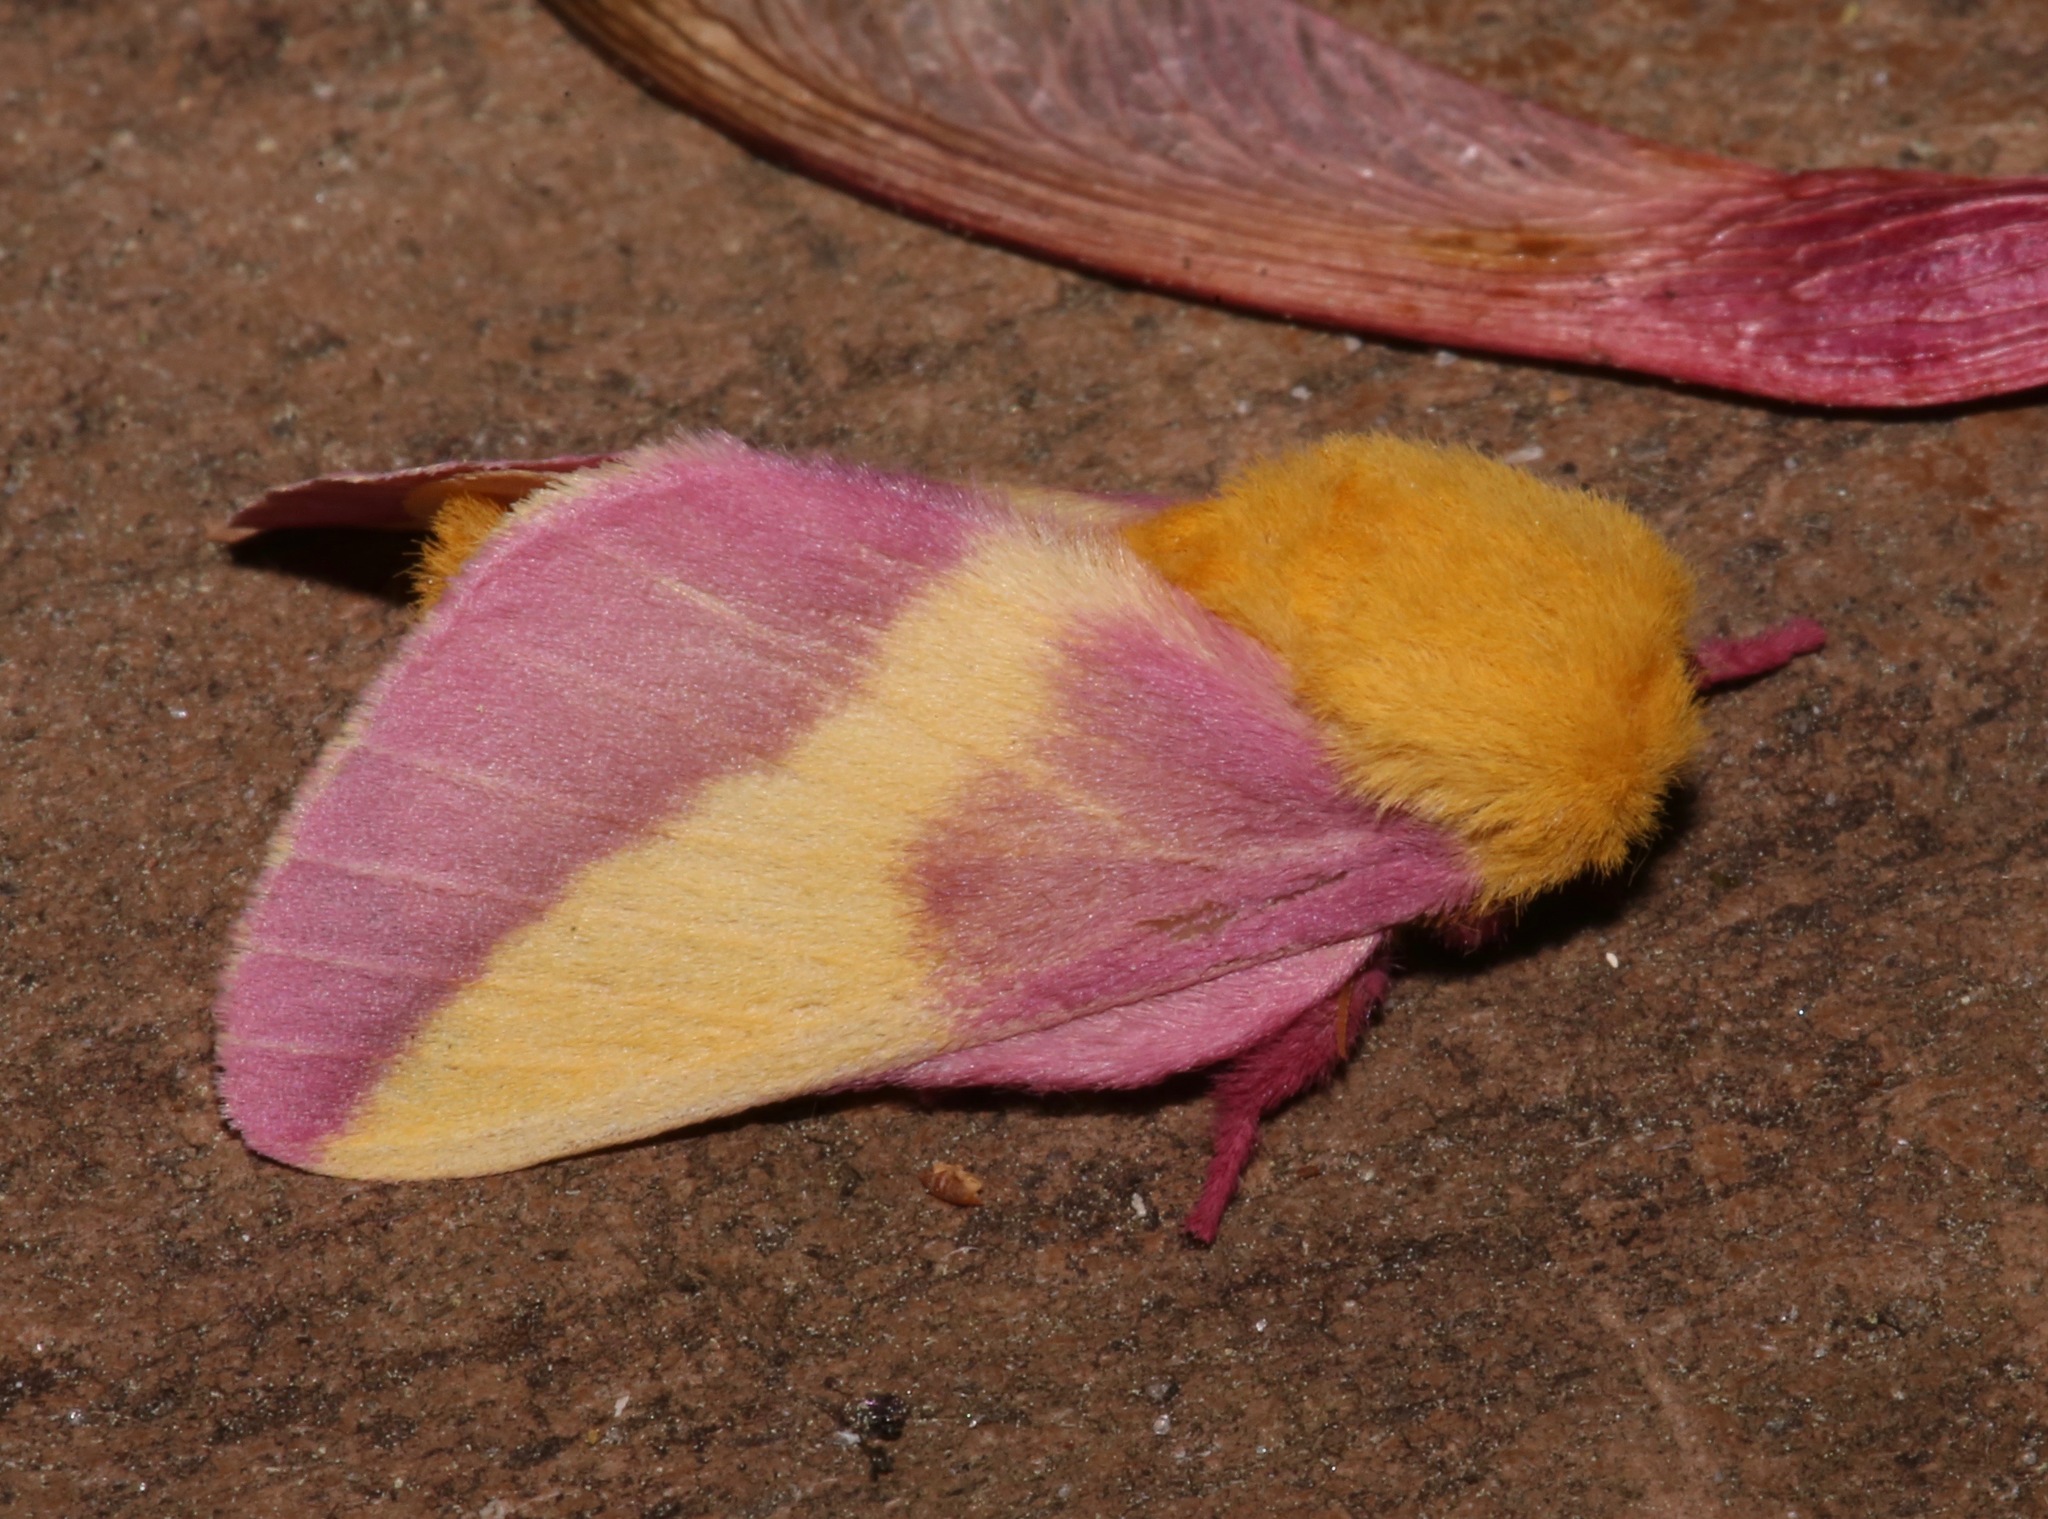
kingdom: Animalia
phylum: Arthropoda
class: Insecta
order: Lepidoptera
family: Saturniidae
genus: Dryocampa
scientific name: Dryocampa rubicunda
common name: Rosy maple moth
